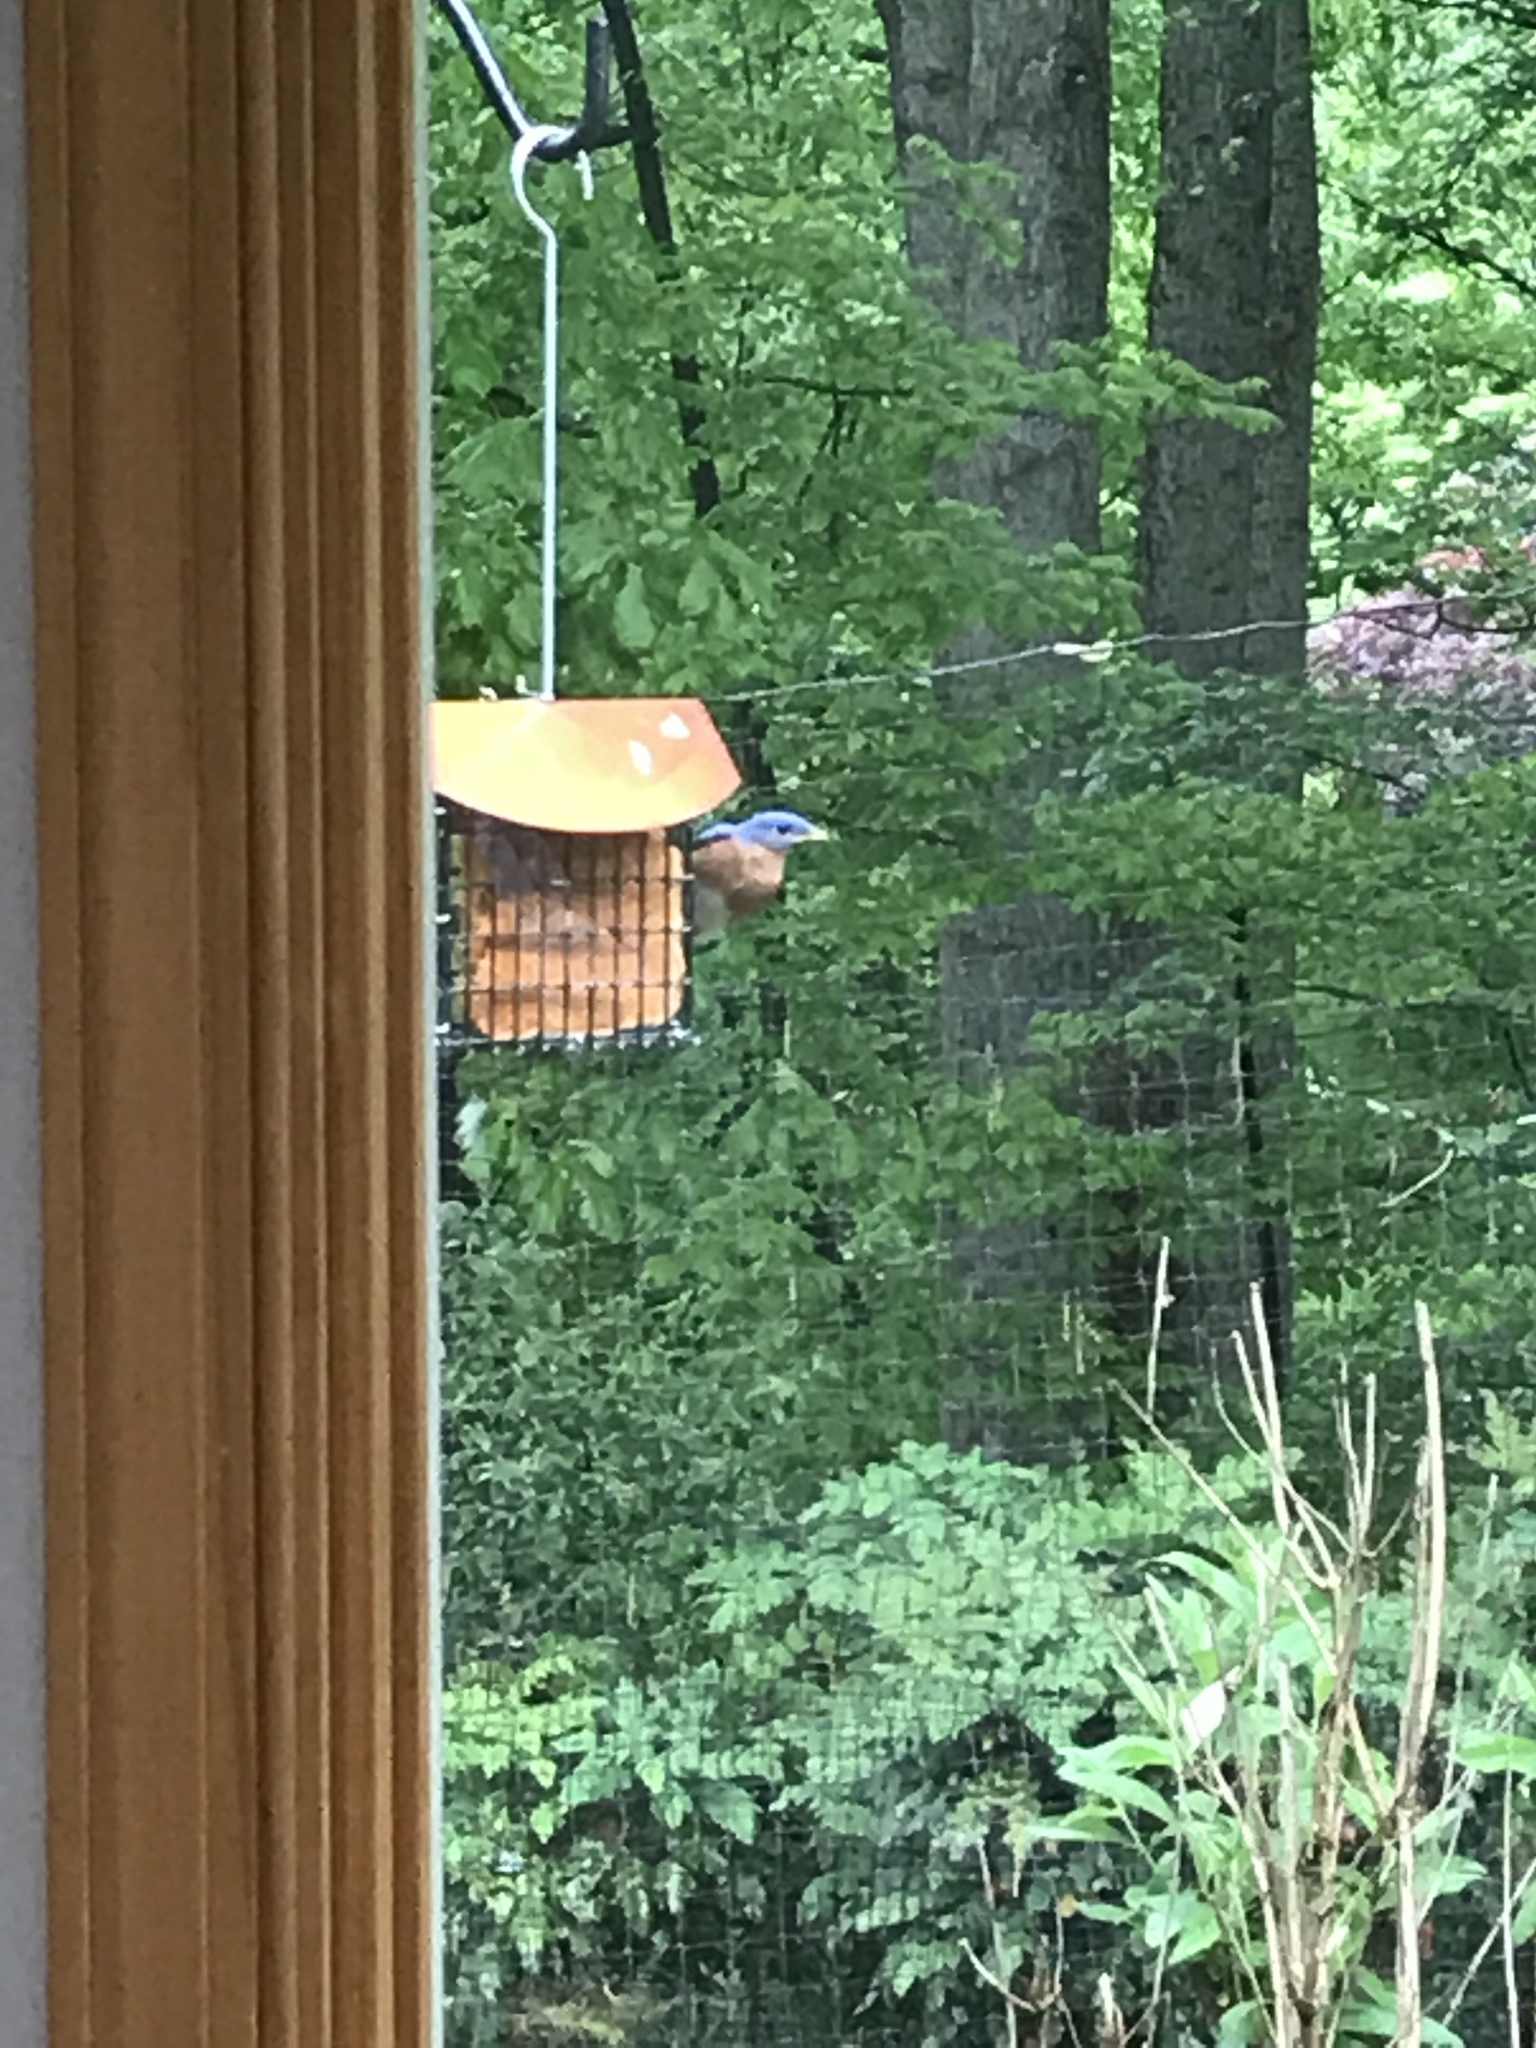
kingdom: Animalia
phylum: Chordata
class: Aves
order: Passeriformes
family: Turdidae
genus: Sialia
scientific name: Sialia sialis
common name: Eastern bluebird
